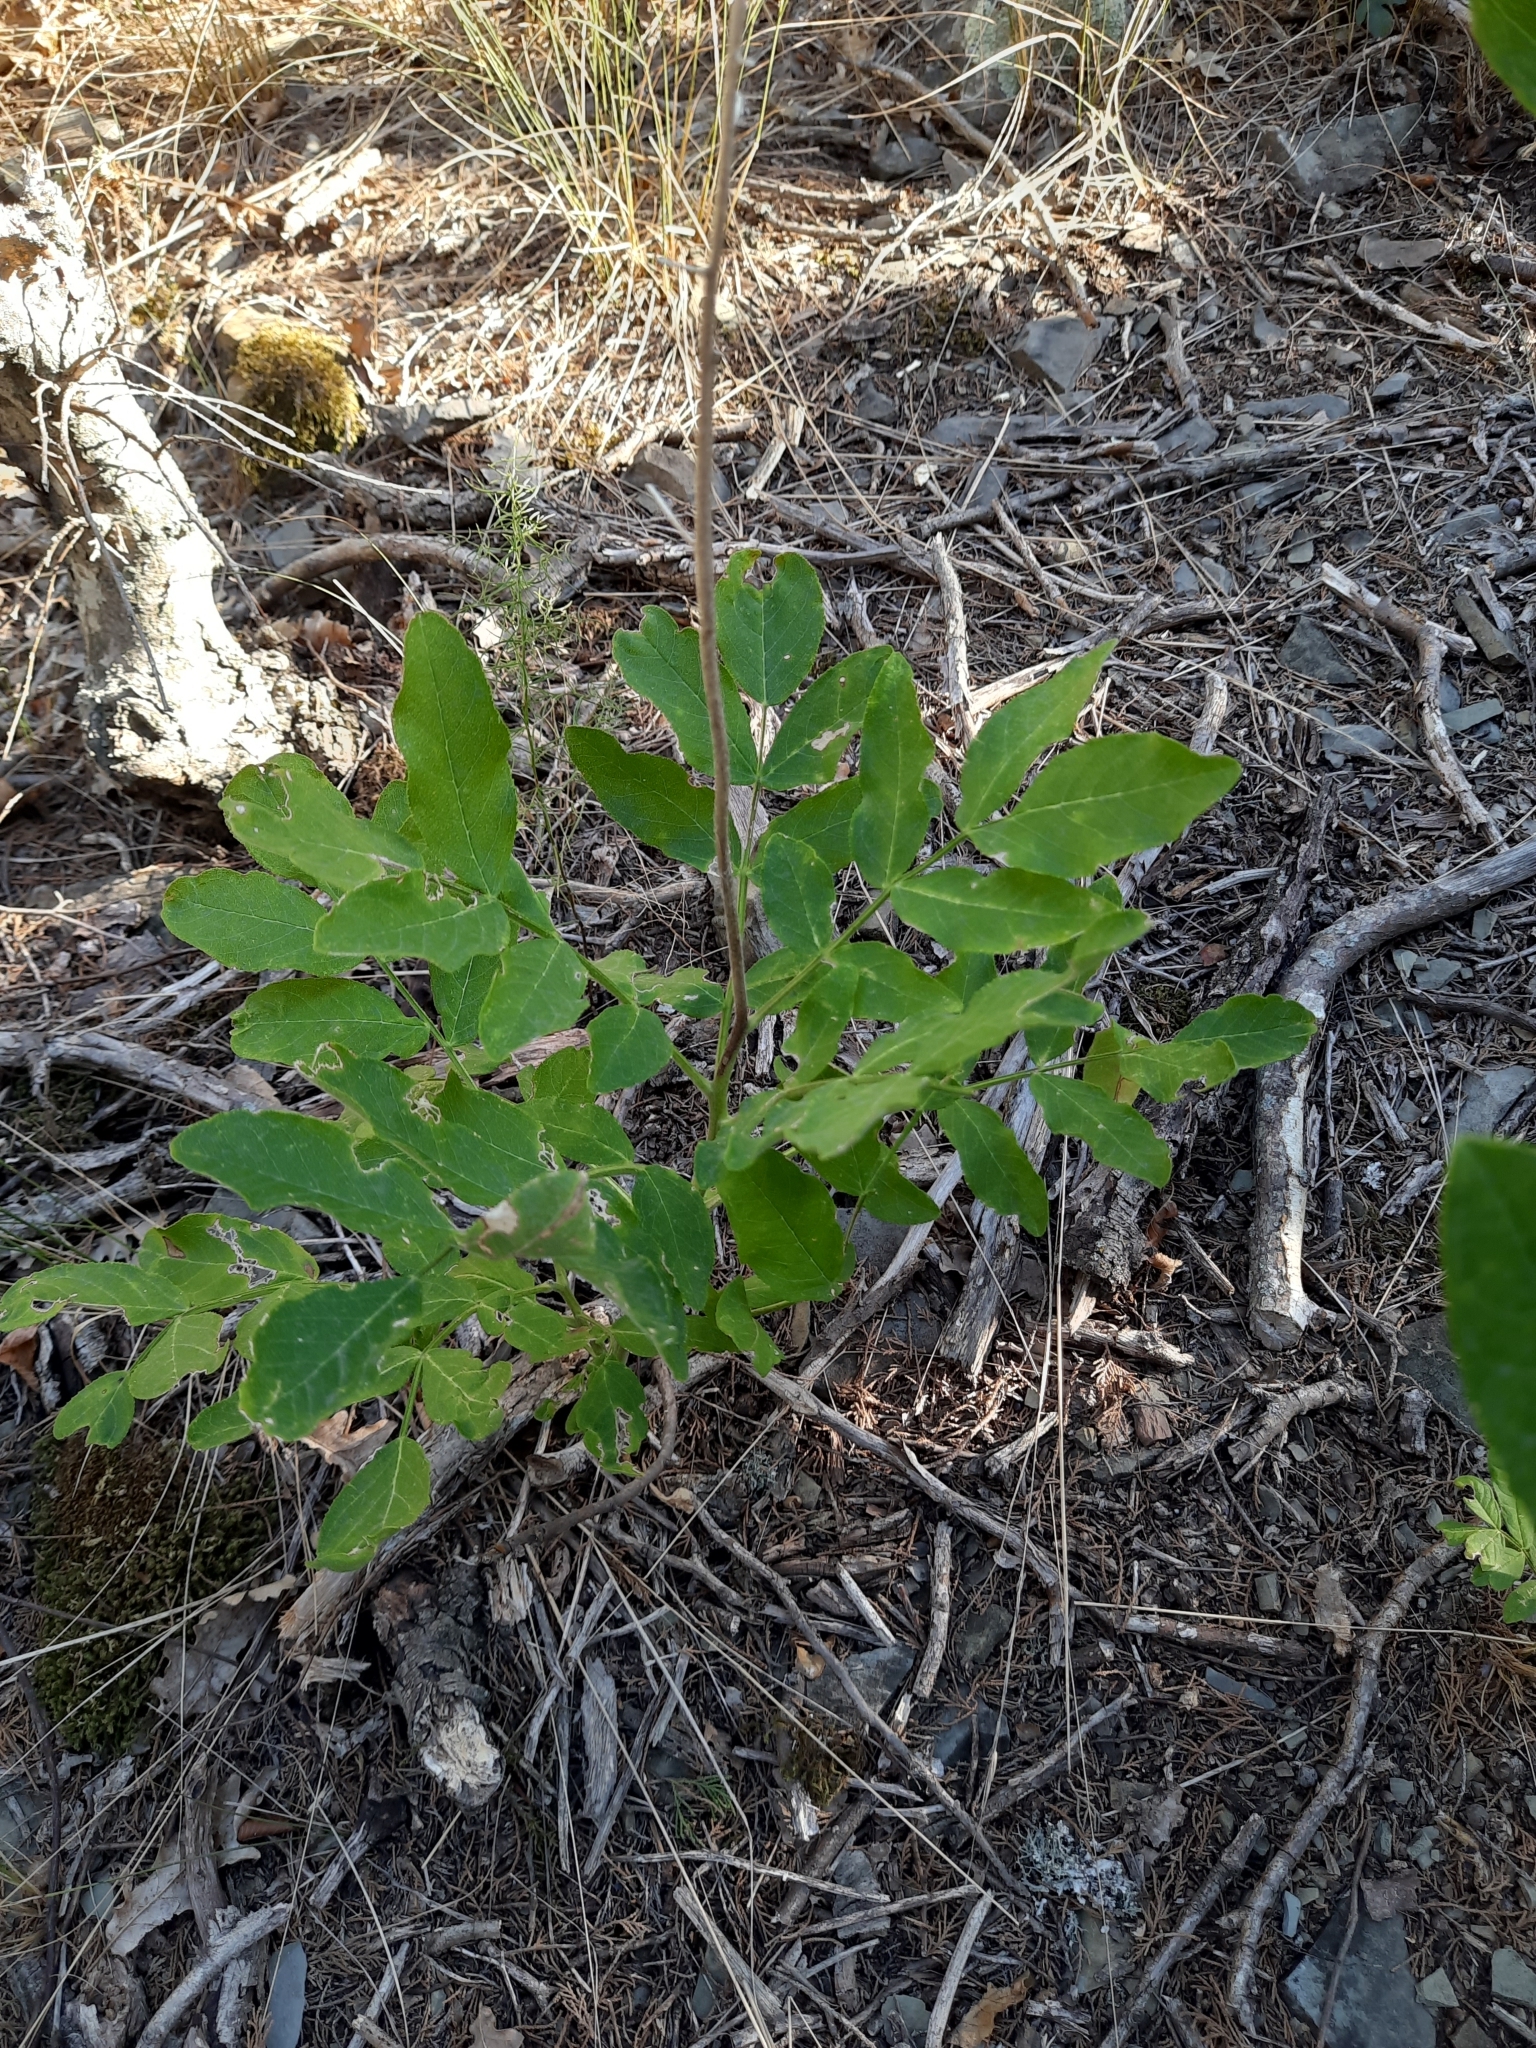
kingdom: Plantae
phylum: Tracheophyta
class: Magnoliopsida
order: Sapindales
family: Rutaceae
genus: Dictamnus
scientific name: Dictamnus albus
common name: Gasplant
